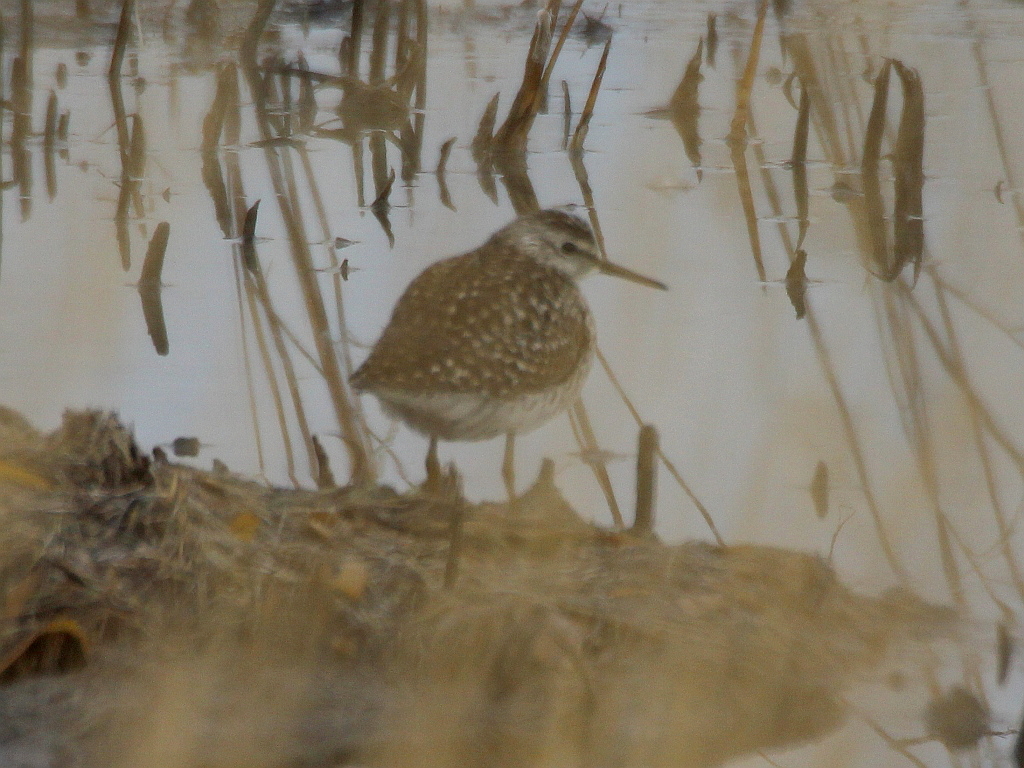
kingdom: Animalia
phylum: Chordata
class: Aves
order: Charadriiformes
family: Scolopacidae
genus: Tringa
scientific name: Tringa glareola
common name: Wood sandpiper
